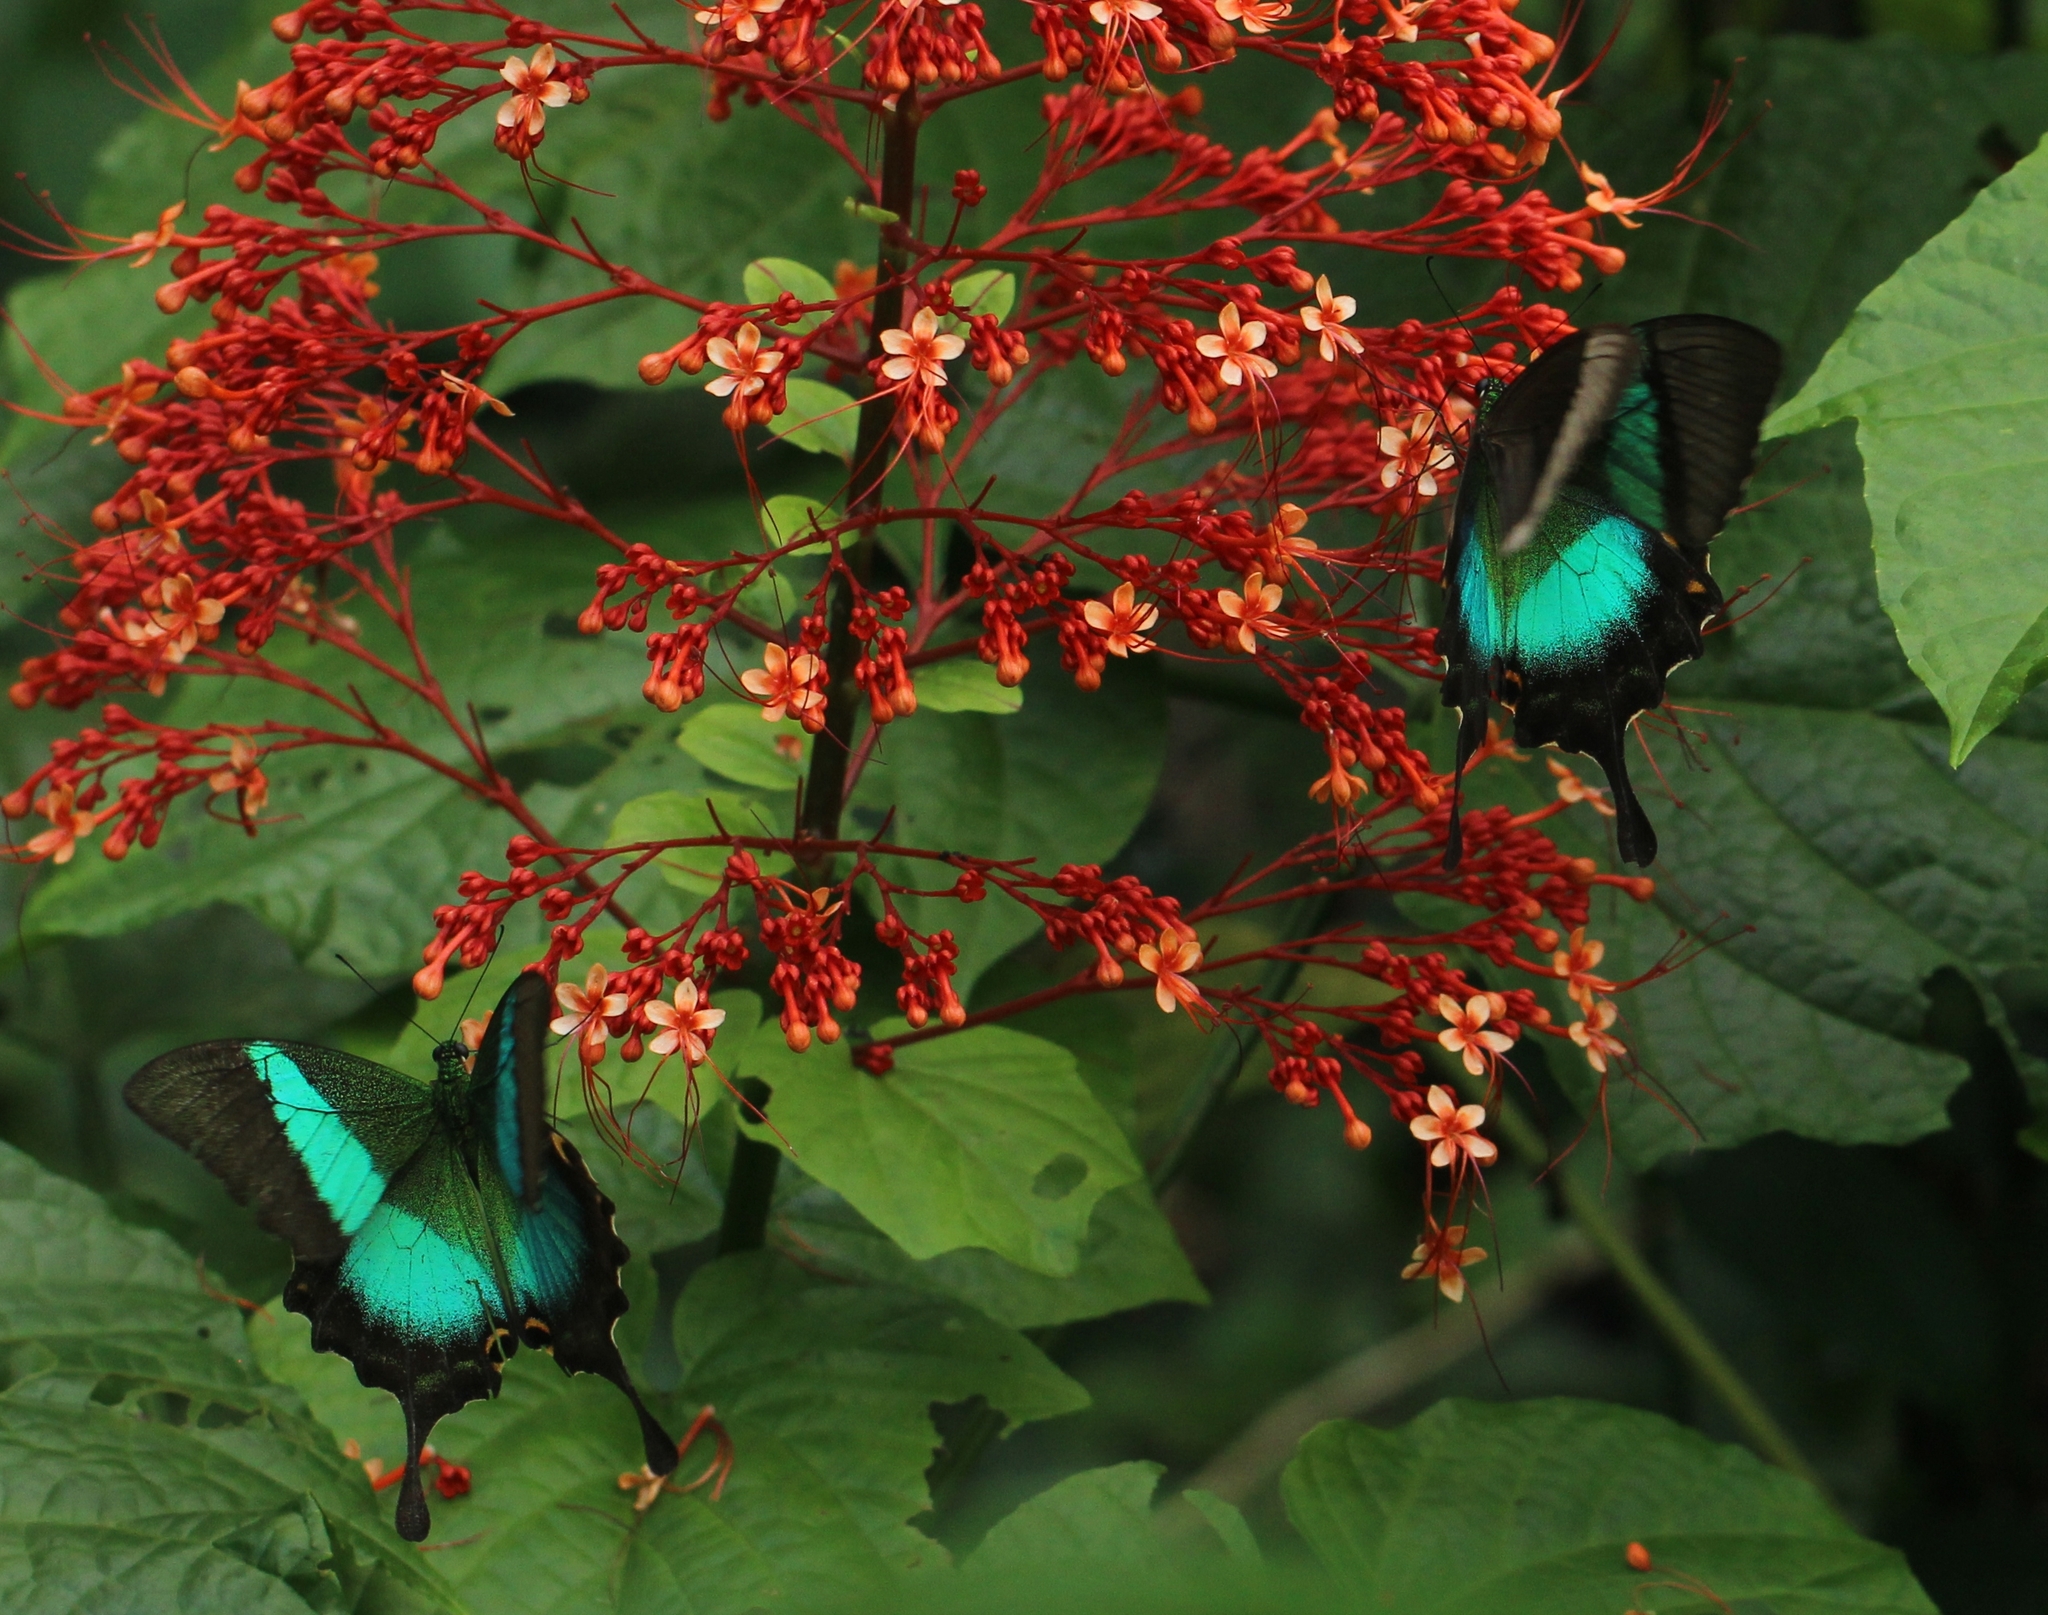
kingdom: Animalia
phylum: Arthropoda
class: Insecta
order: Lepidoptera
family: Papilionidae
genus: Papilio
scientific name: Papilio buddha
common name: Malabar banded peacock
